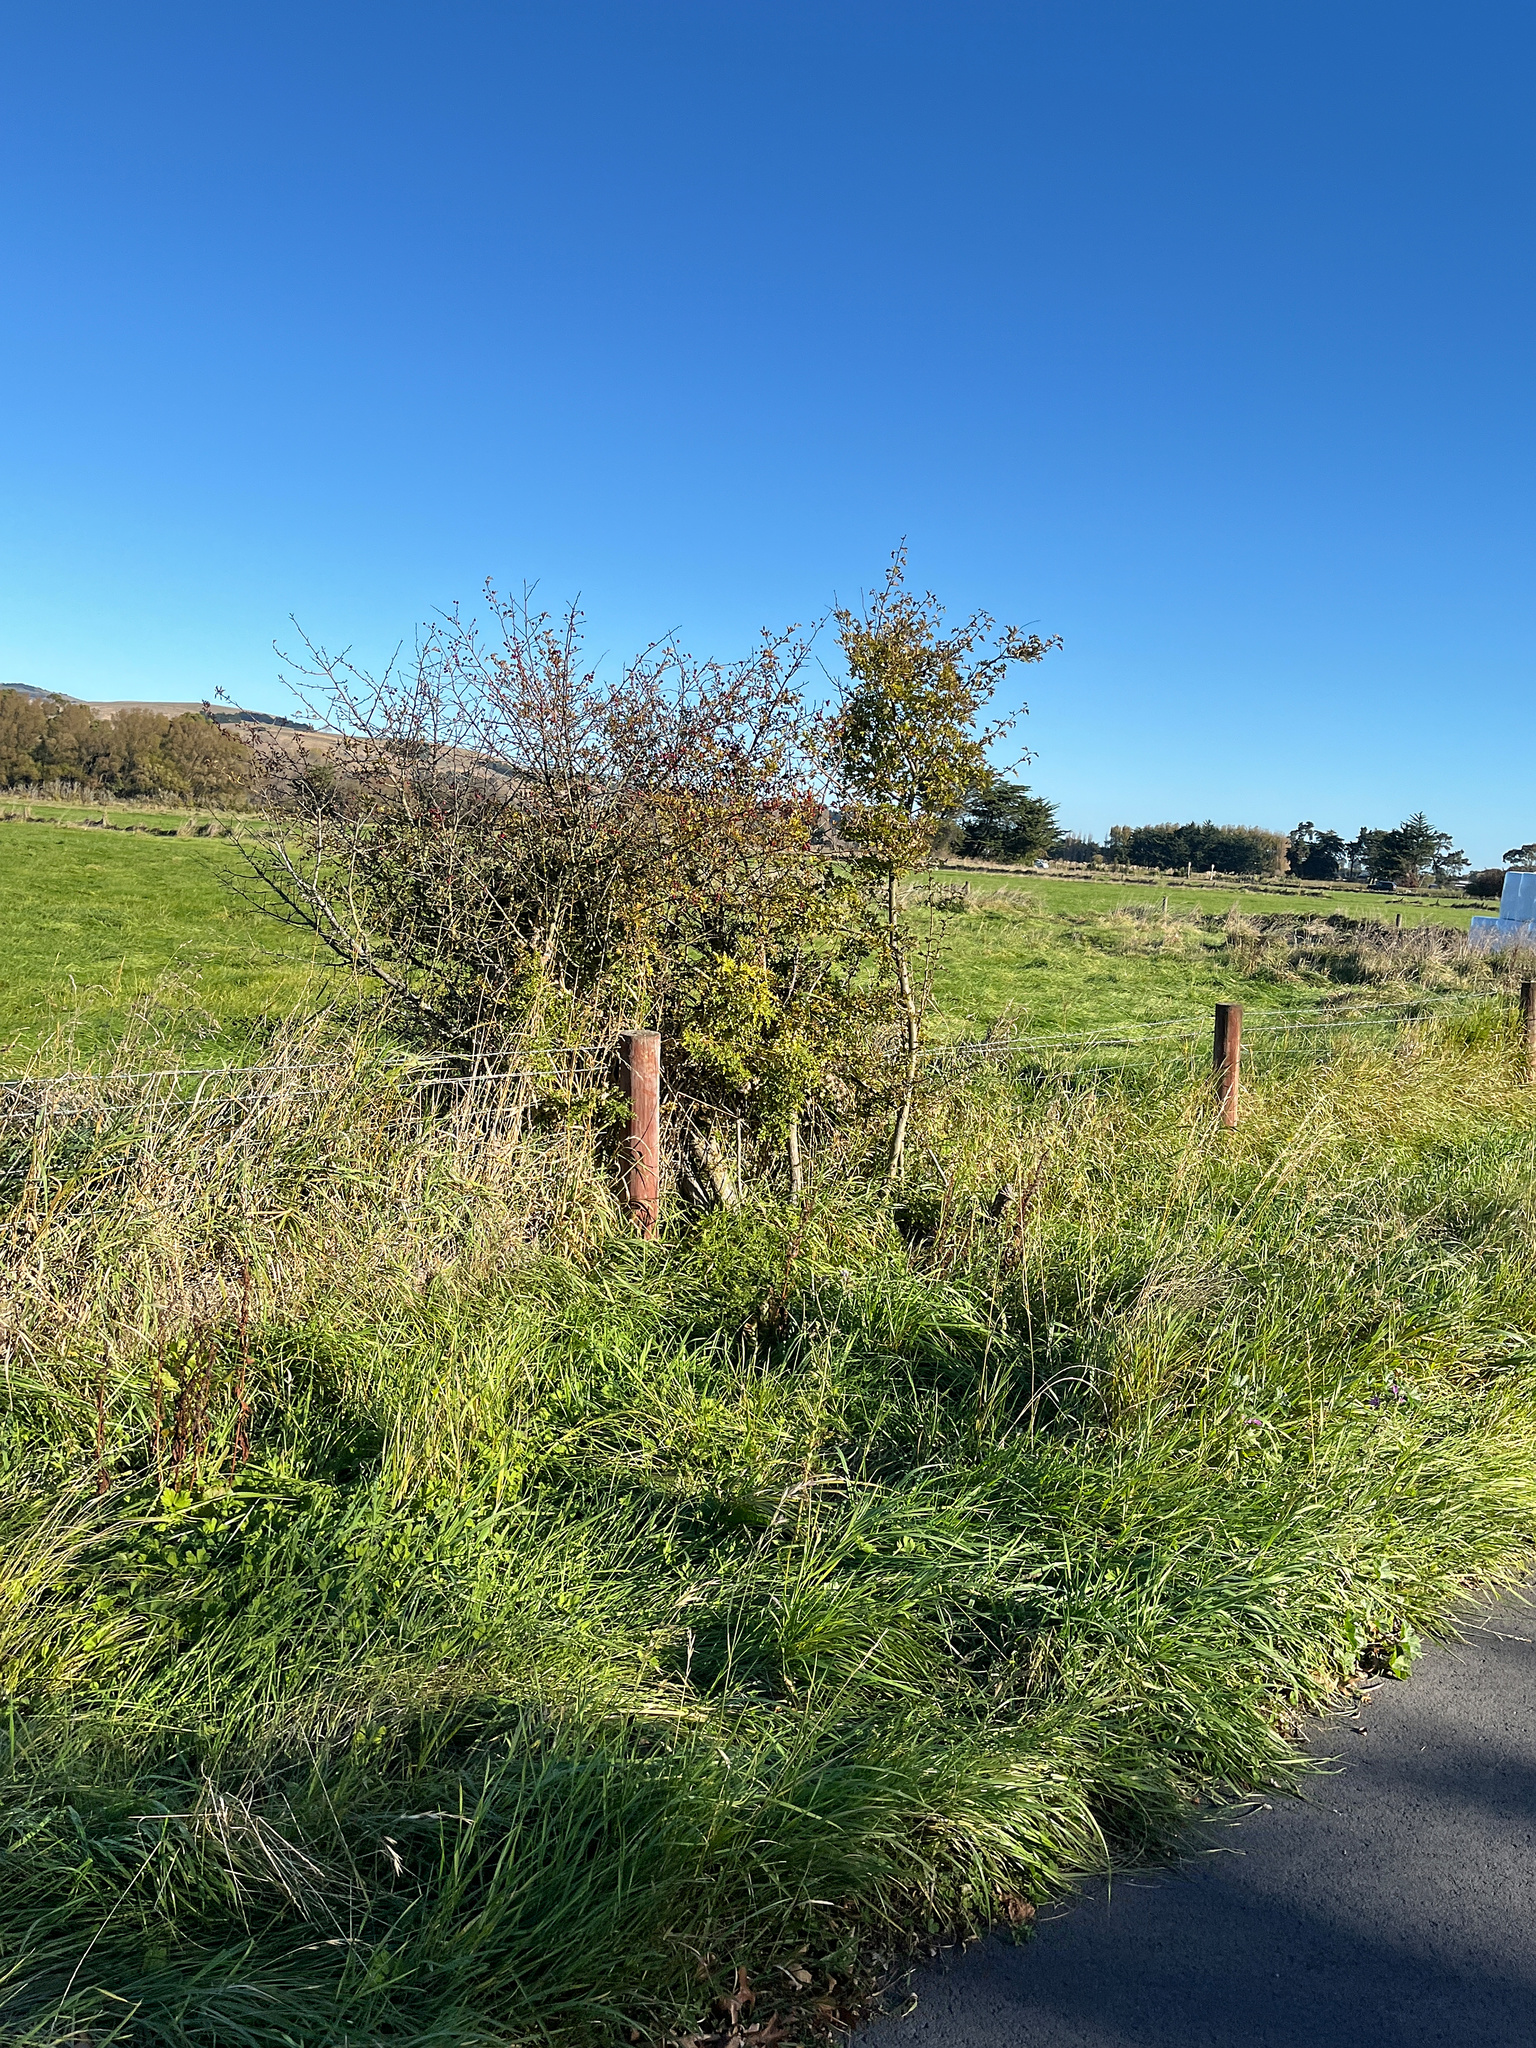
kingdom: Plantae
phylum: Tracheophyta
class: Magnoliopsida
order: Rosales
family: Rosaceae
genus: Crataegus
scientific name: Crataegus monogyna
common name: Hawthorn
